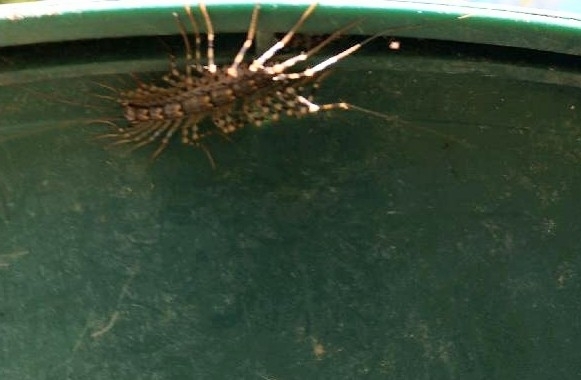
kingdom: Animalia
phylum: Arthropoda
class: Chilopoda
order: Scutigeromorpha
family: Scutigeridae
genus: Thereuonema
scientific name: Thereuonema tuberculata
